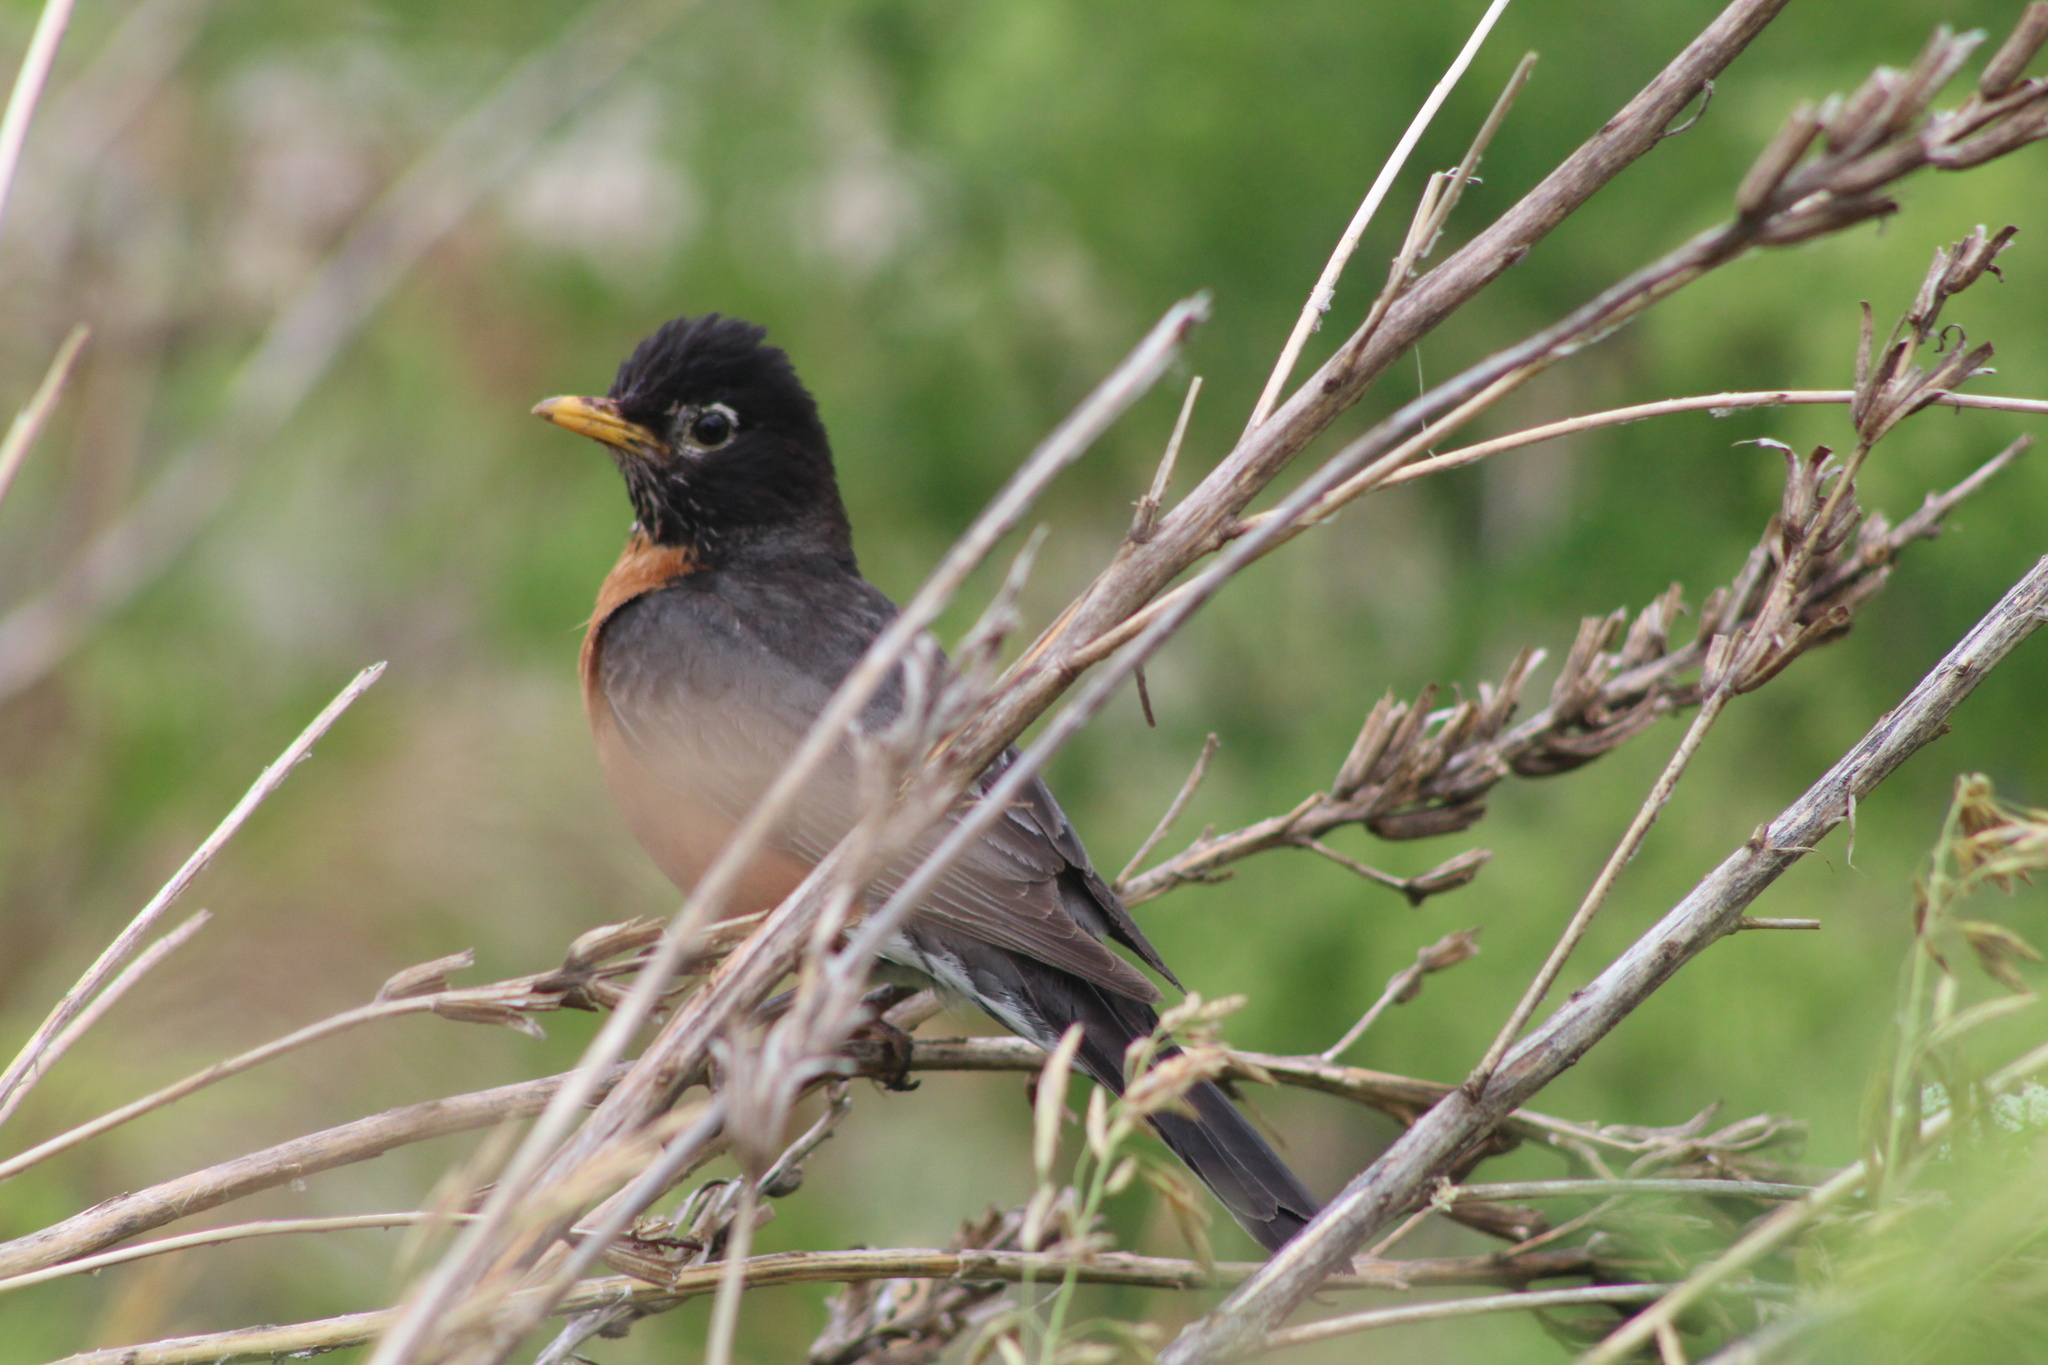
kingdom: Animalia
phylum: Chordata
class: Aves
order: Passeriformes
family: Turdidae
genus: Turdus
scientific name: Turdus migratorius
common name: American robin
